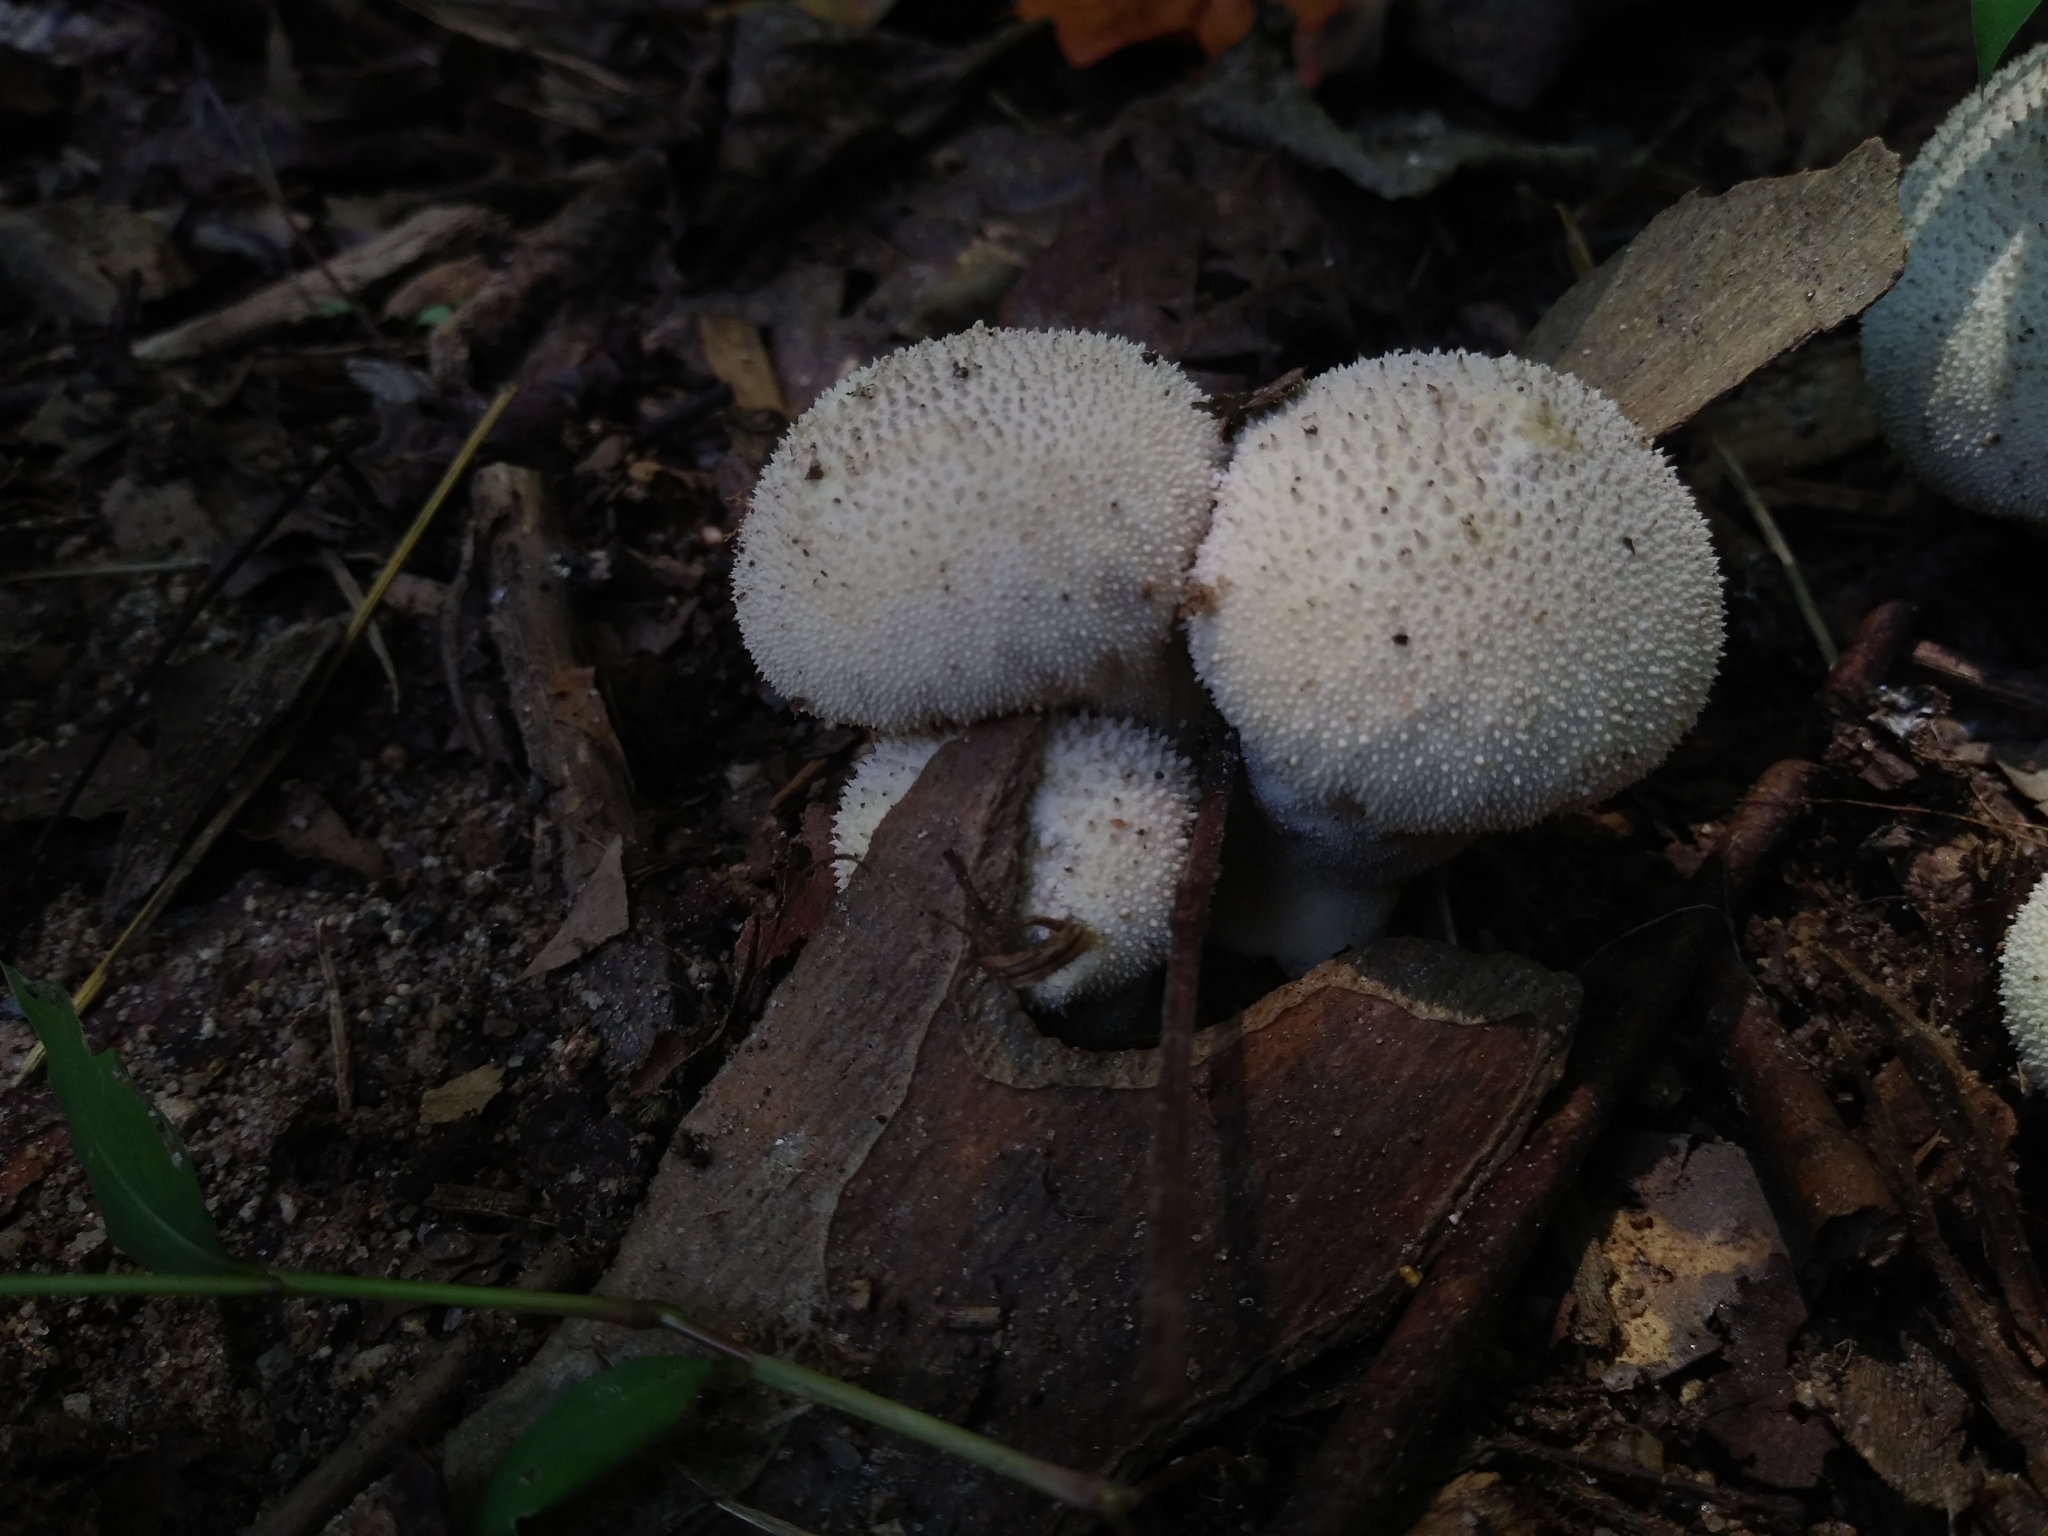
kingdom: Fungi
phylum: Basidiomycota
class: Agaricomycetes
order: Agaricales
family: Lycoperdaceae
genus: Lycoperdon
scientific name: Lycoperdon perlatum
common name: Common puffball
